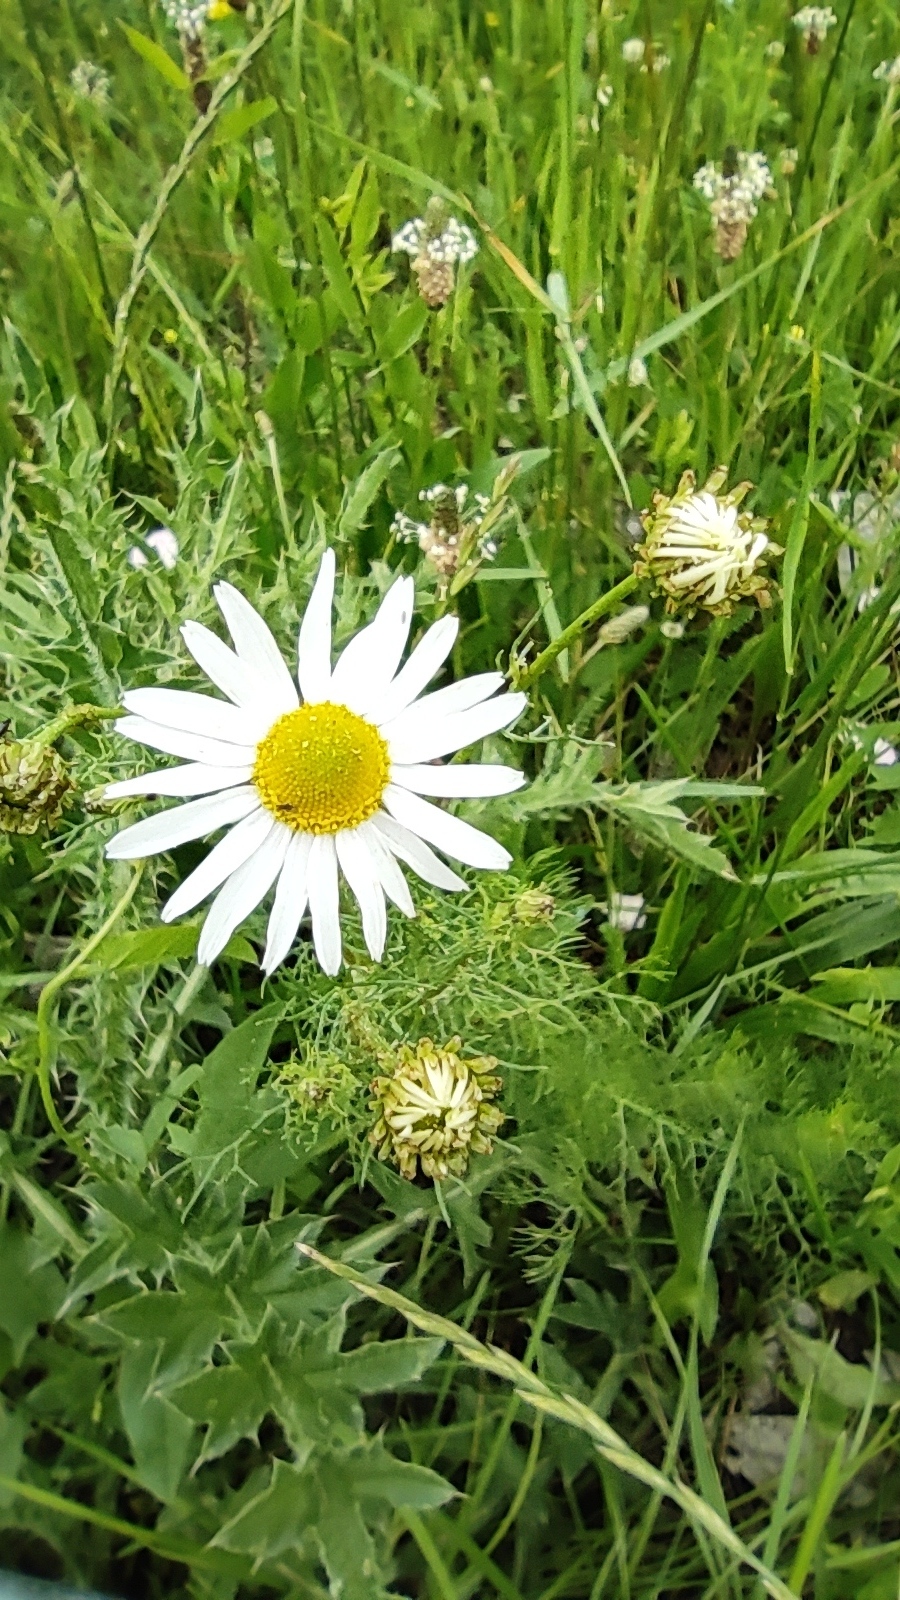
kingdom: Plantae
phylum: Tracheophyta
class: Magnoliopsida
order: Asterales
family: Asteraceae
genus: Tripleurospermum
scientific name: Tripleurospermum inodorum
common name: Scentless mayweed
